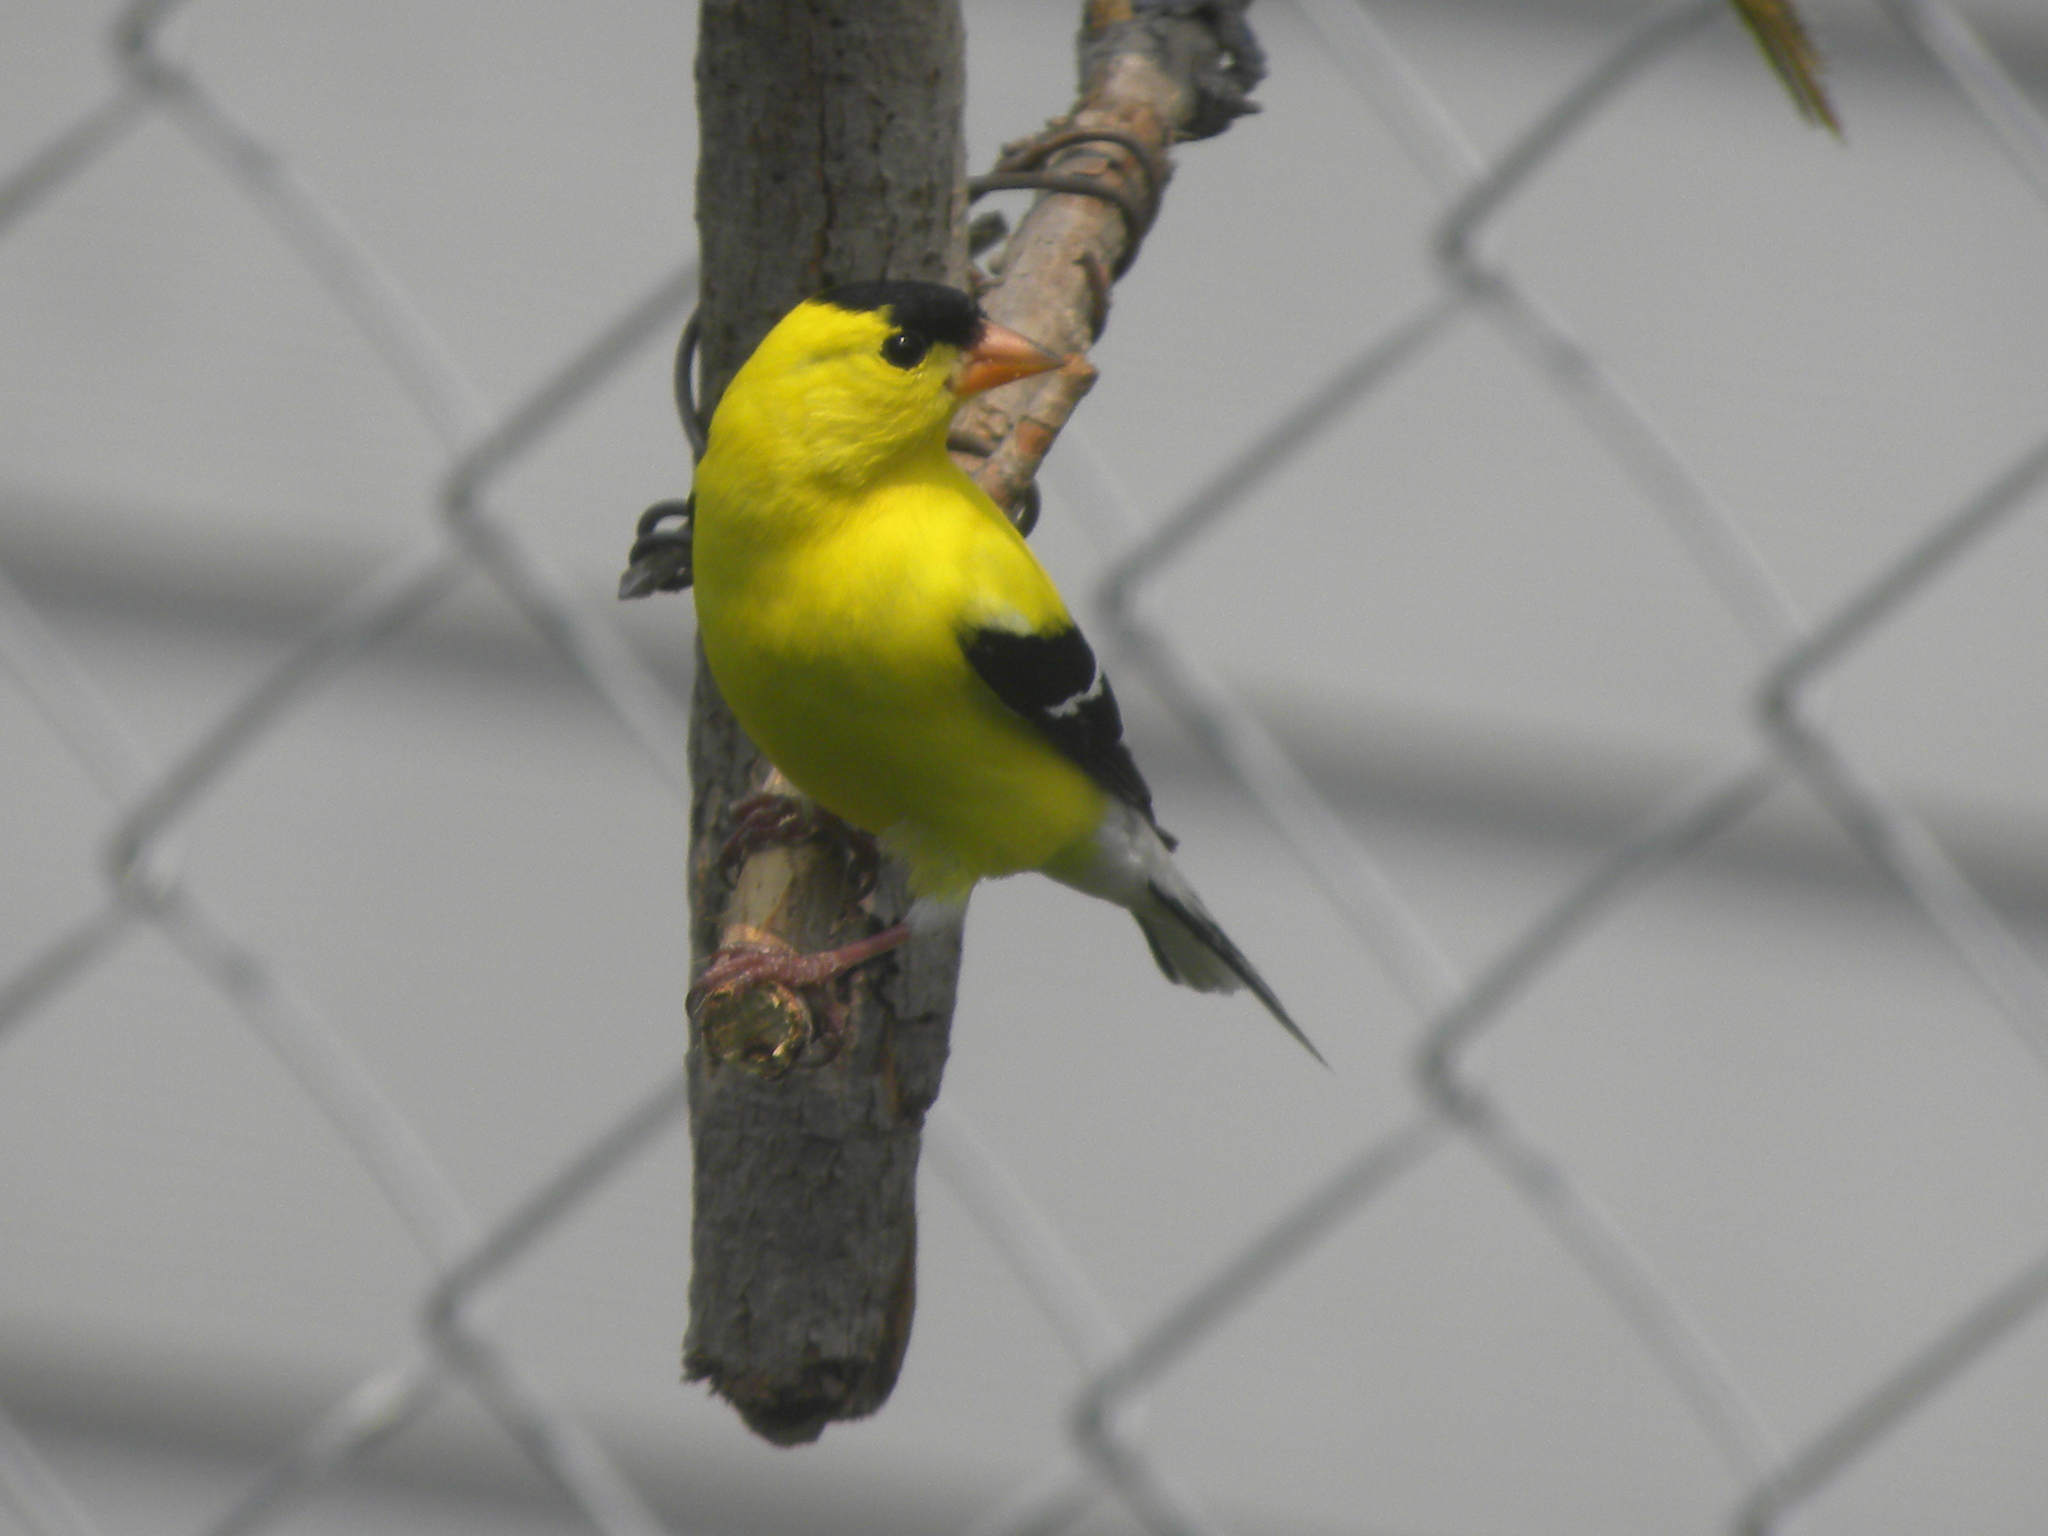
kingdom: Animalia
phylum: Chordata
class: Aves
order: Passeriformes
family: Fringillidae
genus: Spinus
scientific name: Spinus tristis
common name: American goldfinch
